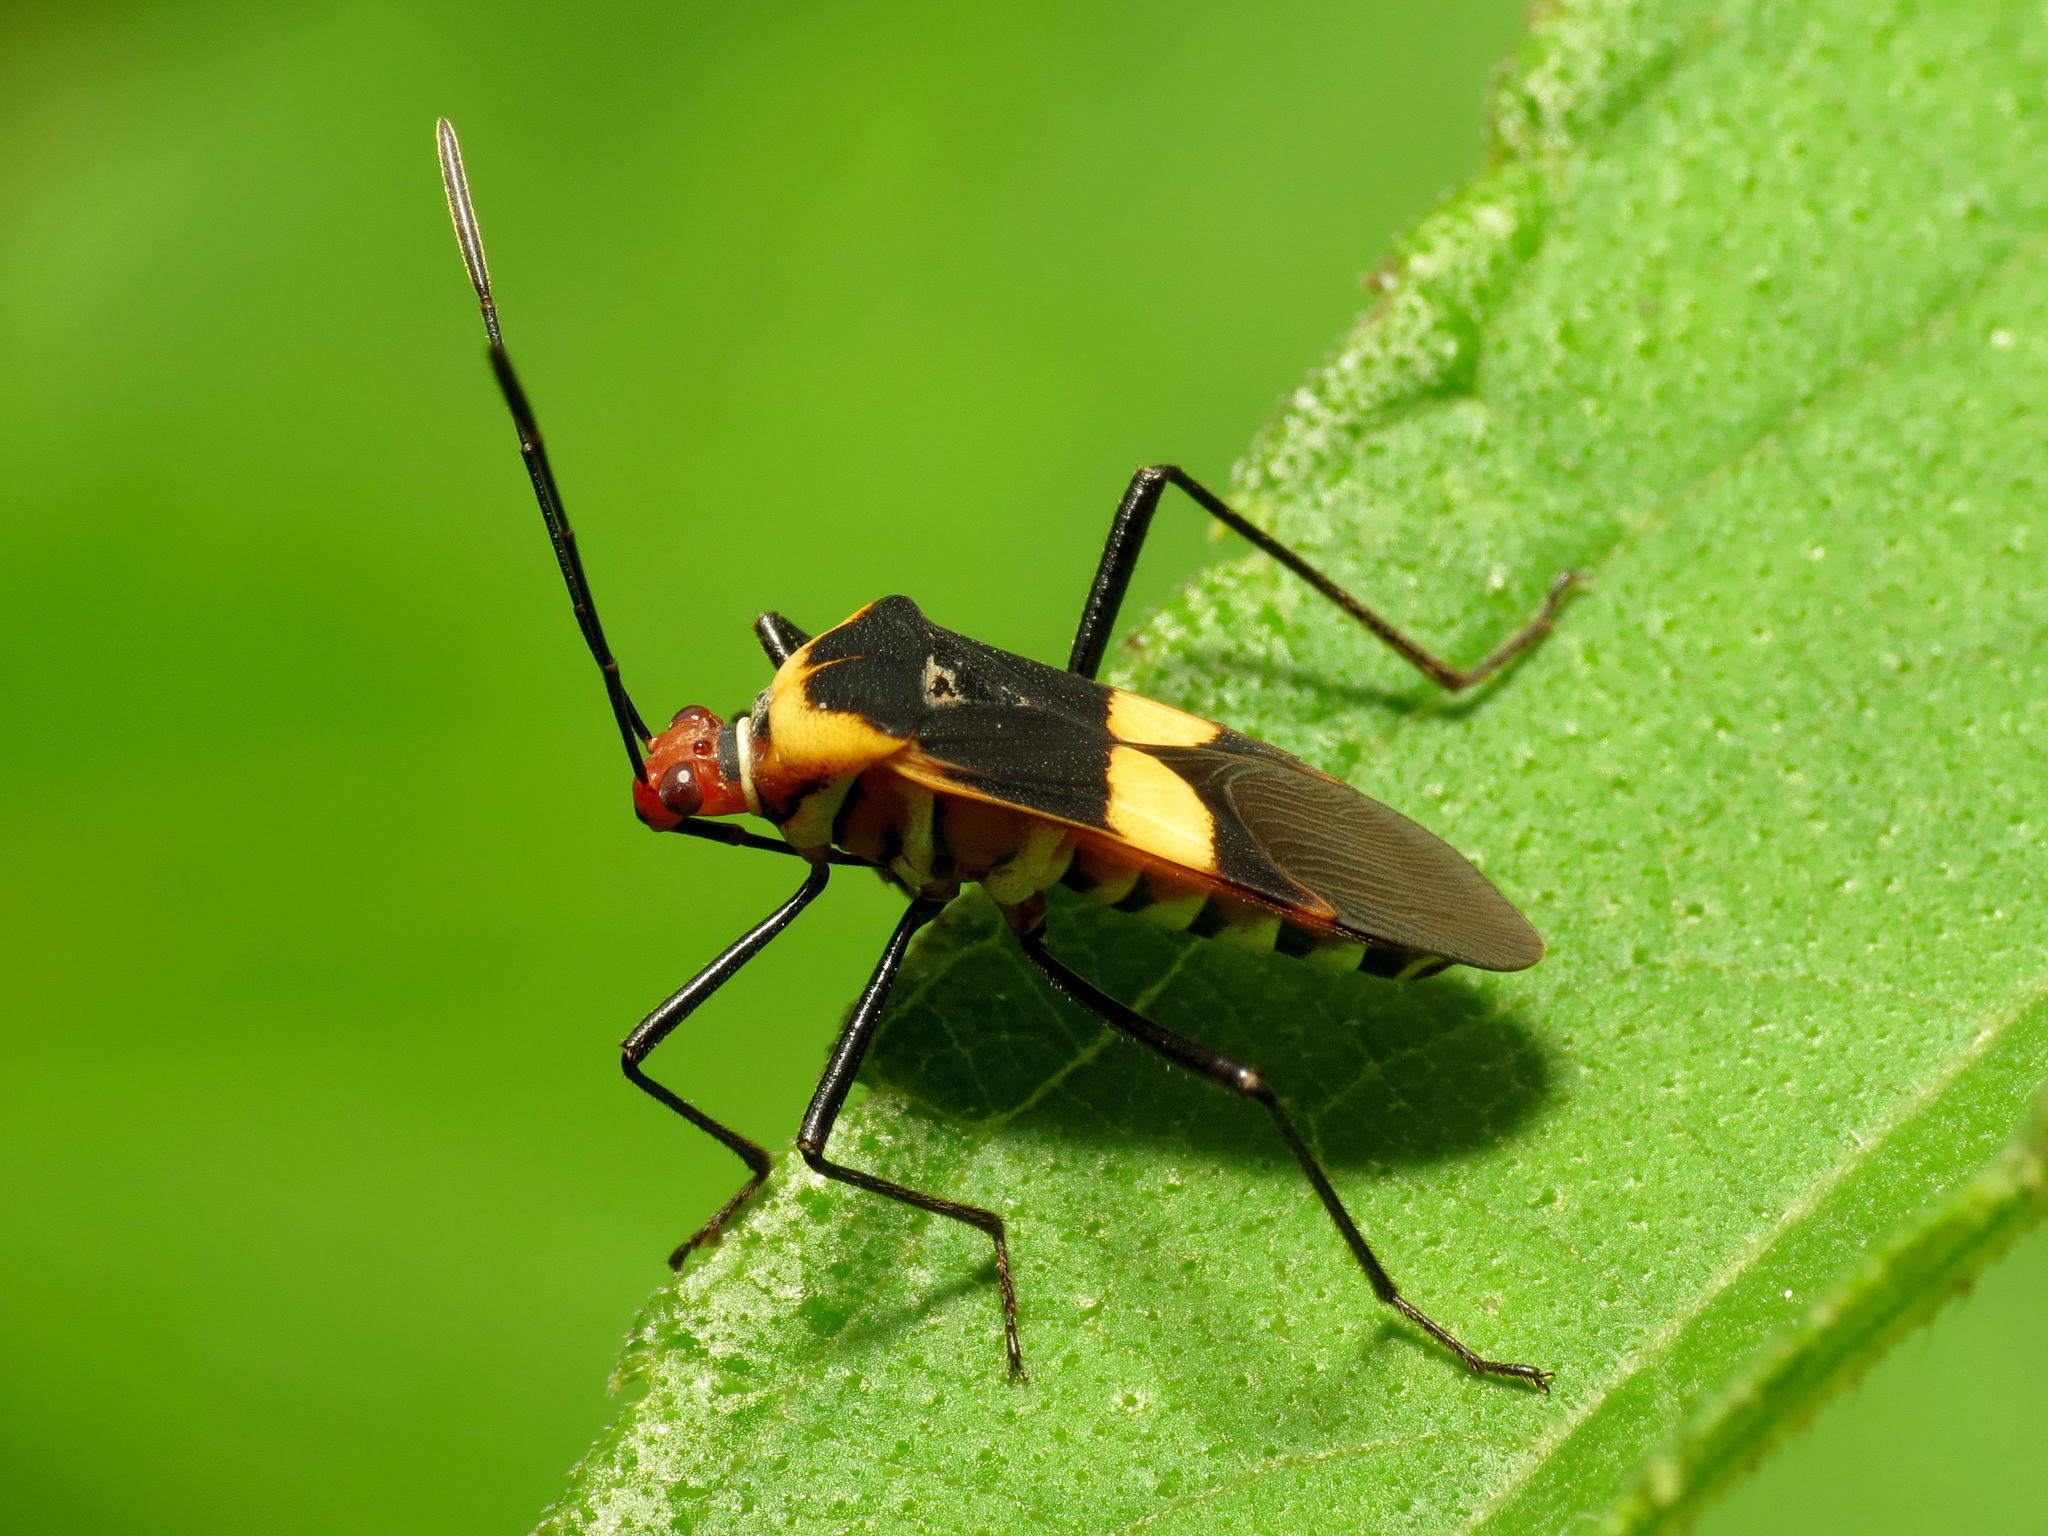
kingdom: Animalia
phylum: Arthropoda
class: Insecta
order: Hemiptera
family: Coreidae
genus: Hypselonotus
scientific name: Hypselonotus interruptus
